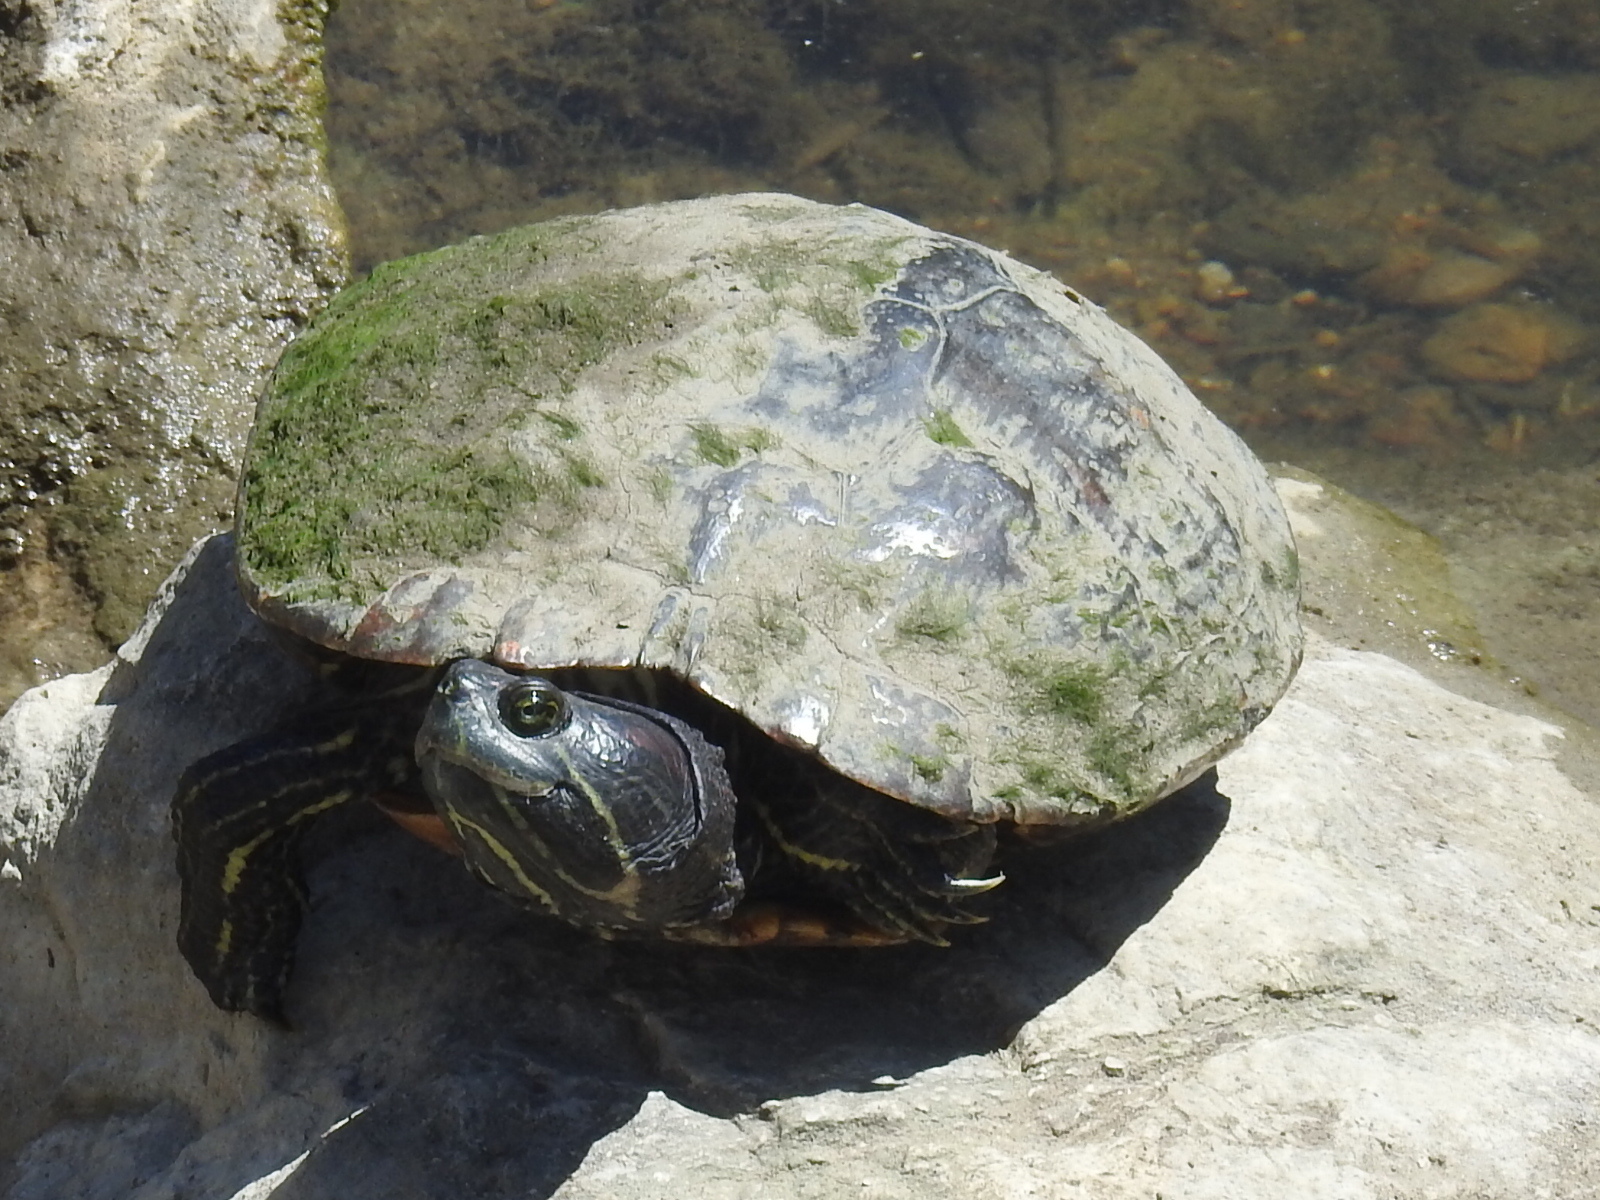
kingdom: Animalia
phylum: Chordata
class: Testudines
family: Emydidae
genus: Trachemys
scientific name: Trachemys scripta
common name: Slider
